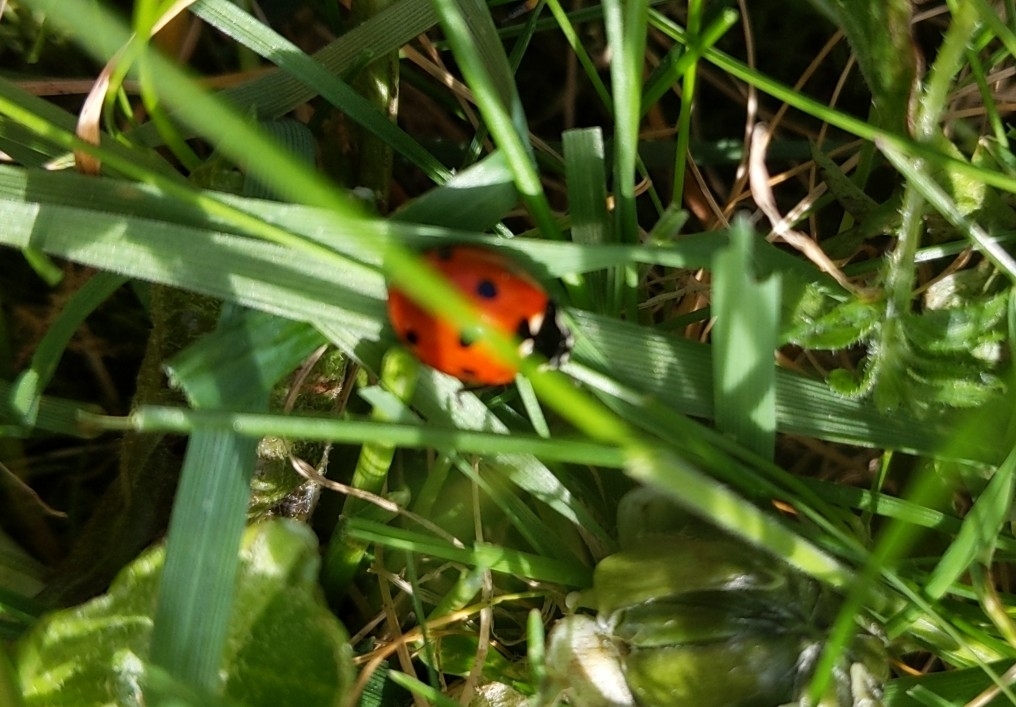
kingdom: Animalia
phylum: Arthropoda
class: Insecta
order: Coleoptera
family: Coccinellidae
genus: Coccinella
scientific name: Coccinella septempunctata
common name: Sevenspotted lady beetle
